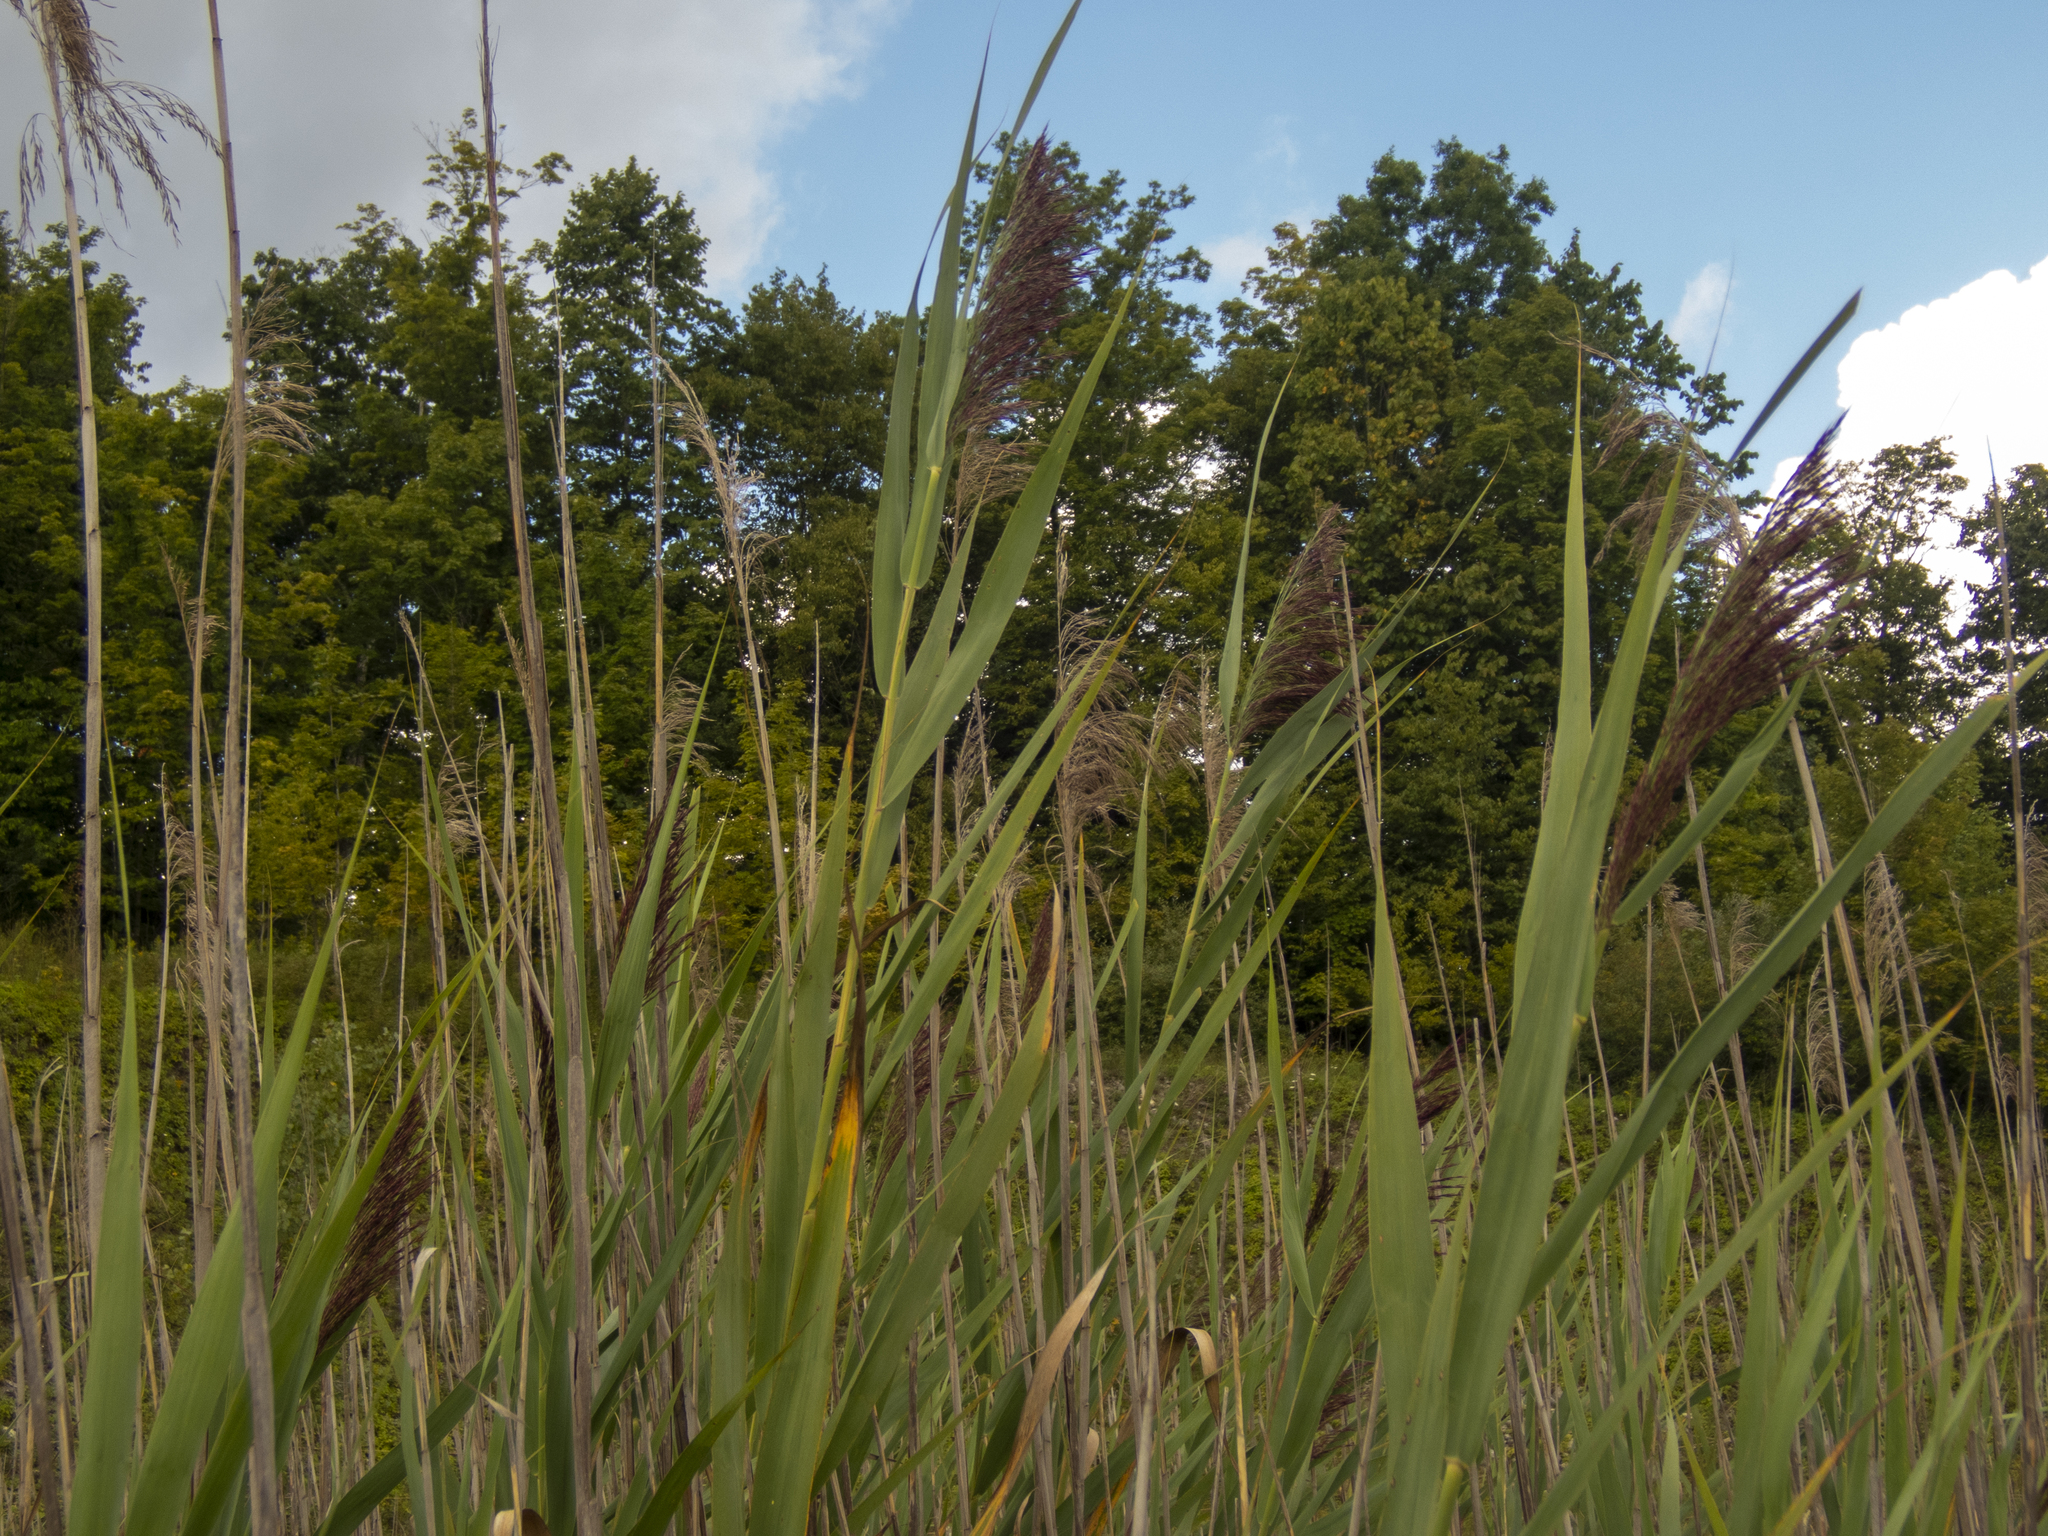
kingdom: Plantae
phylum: Tracheophyta
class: Liliopsida
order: Poales
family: Poaceae
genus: Phragmites
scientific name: Phragmites australis
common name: Common reed
